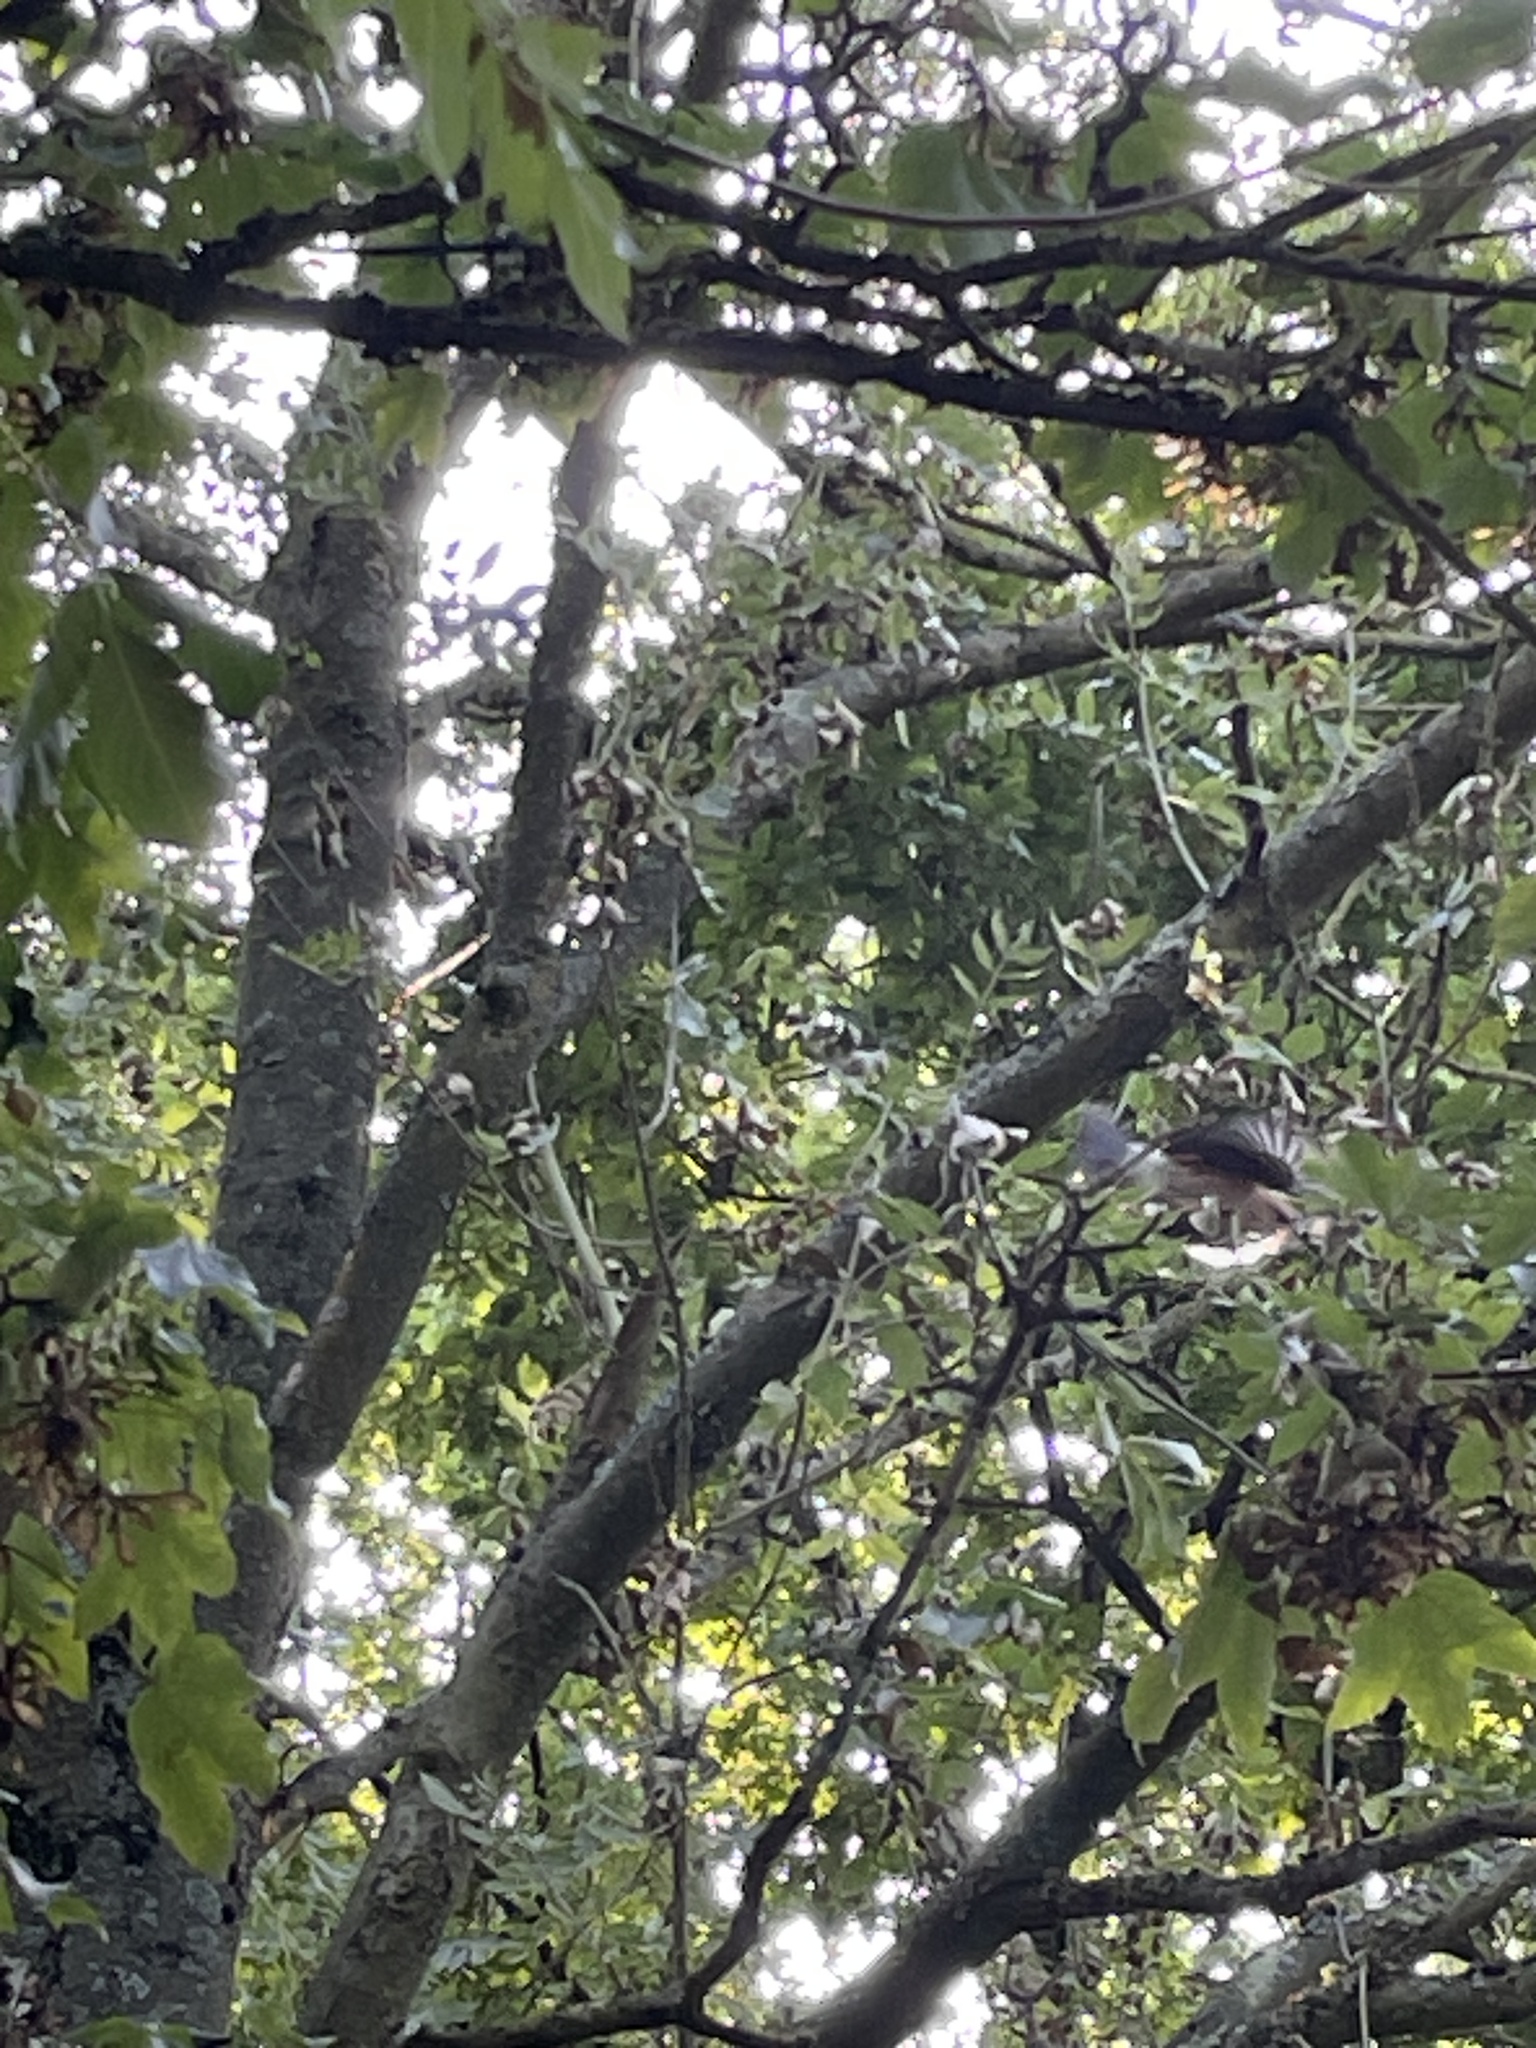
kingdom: Animalia
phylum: Chordata
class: Aves
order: Passeriformes
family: Corvidae
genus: Garrulus
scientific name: Garrulus glandarius
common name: Eurasian jay
